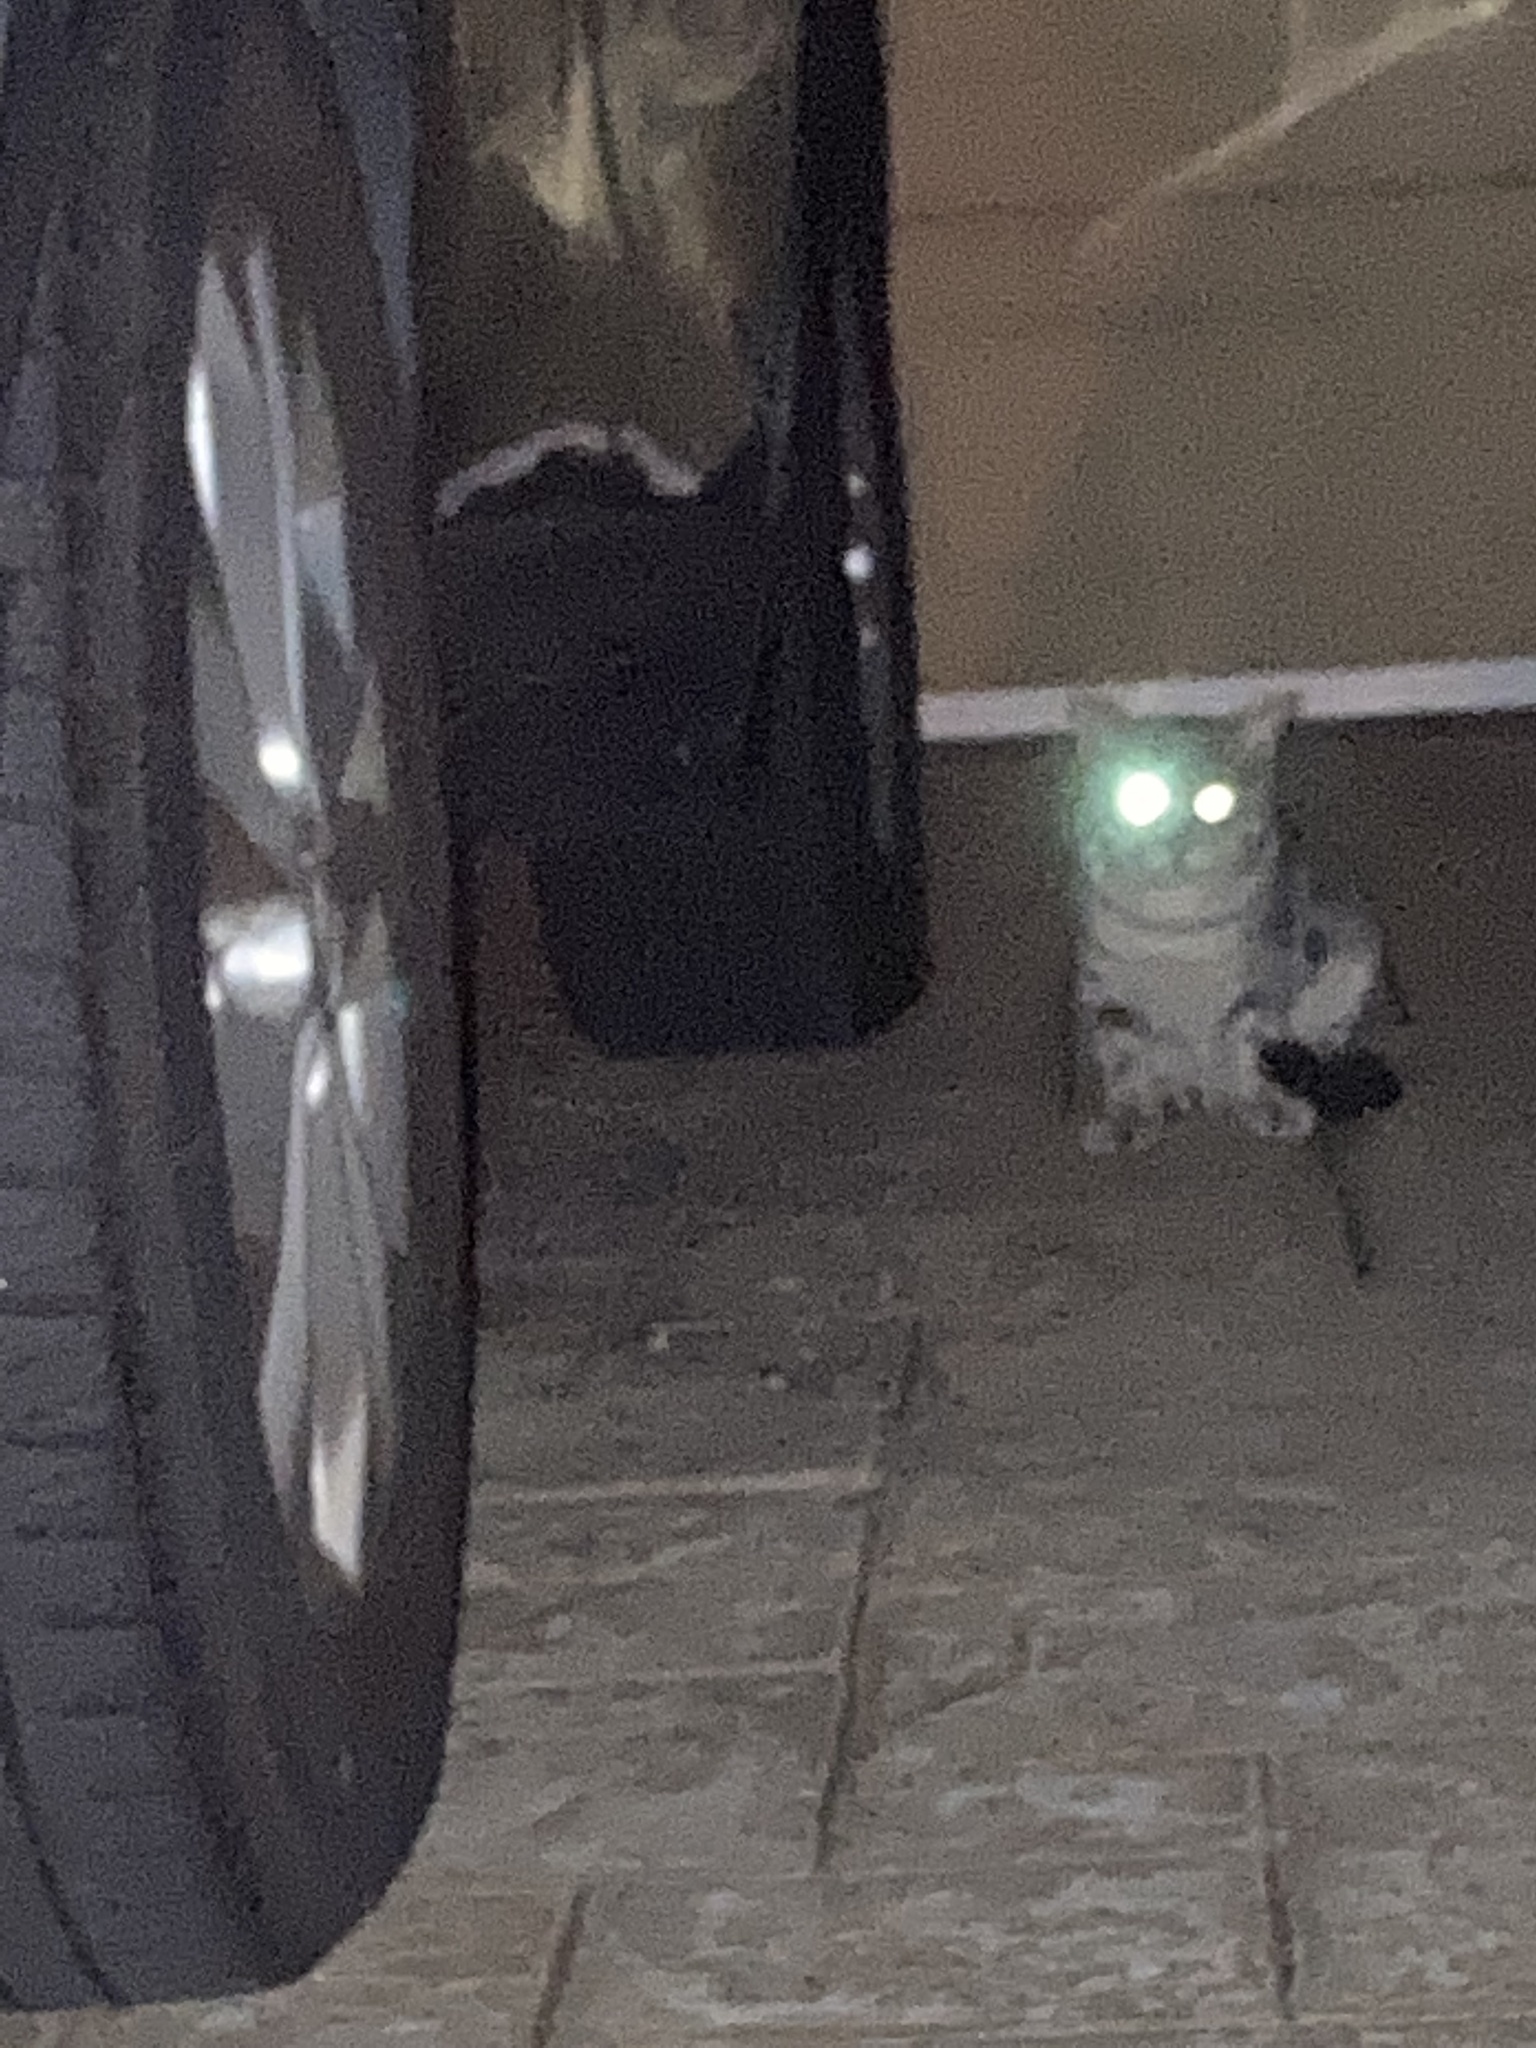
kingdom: Animalia
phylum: Chordata
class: Mammalia
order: Carnivora
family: Felidae
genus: Felis
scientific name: Felis catus
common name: Domestic cat
